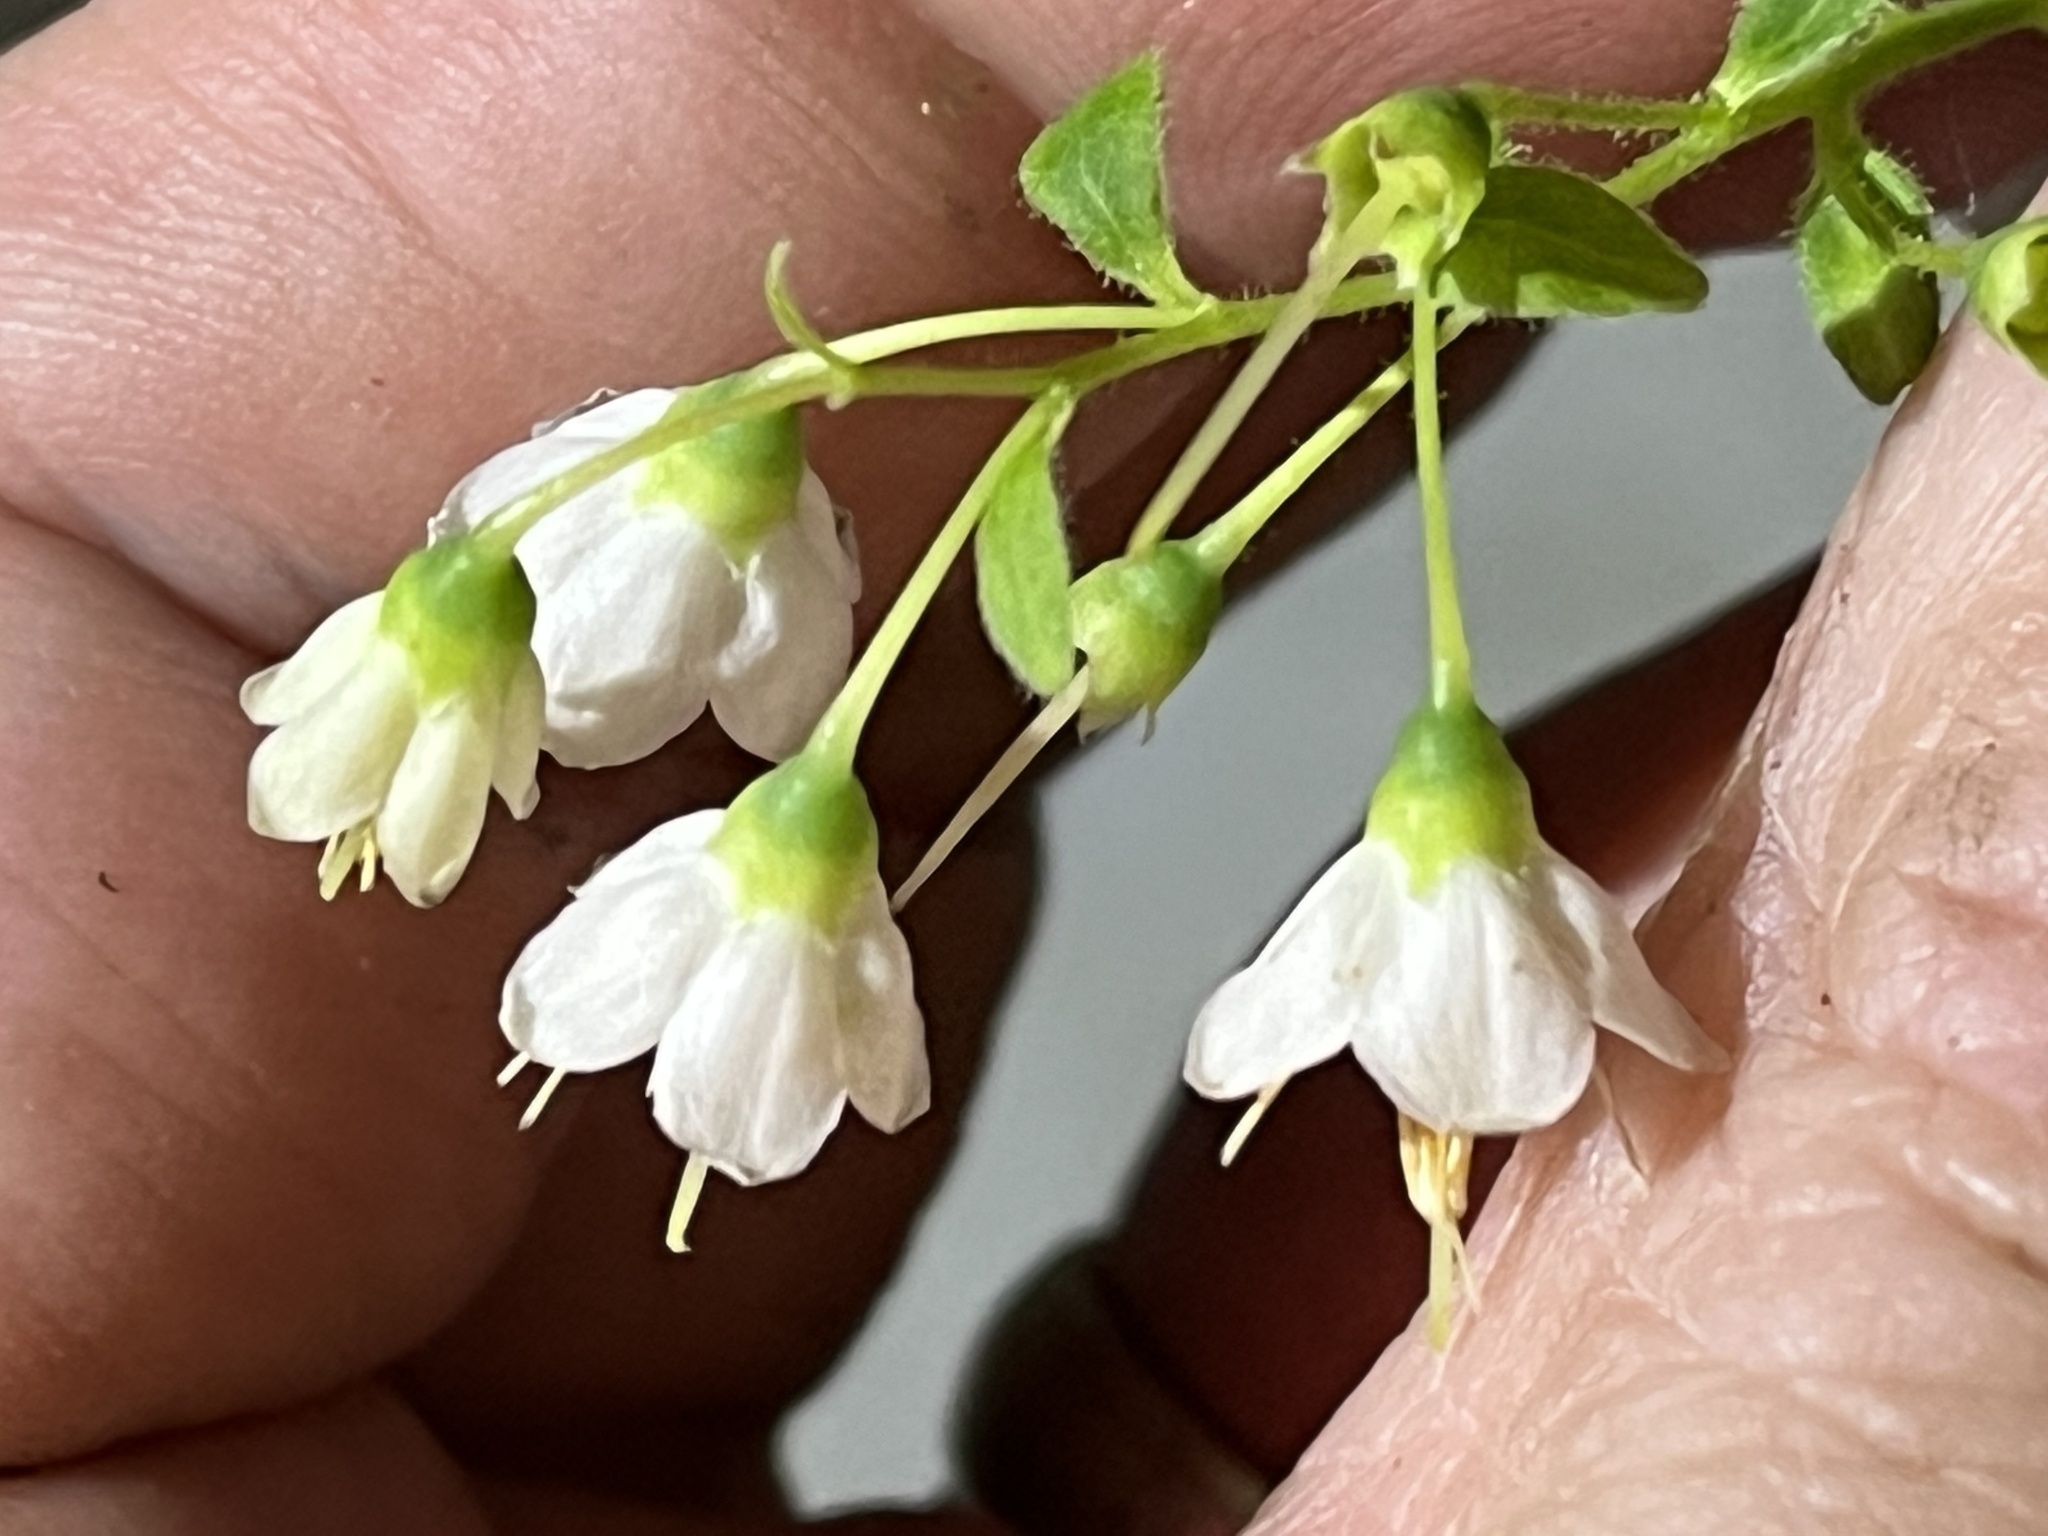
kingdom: Plantae
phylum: Tracheophyta
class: Magnoliopsida
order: Ericales
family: Ericaceae
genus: Vaccinium
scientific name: Vaccinium stamineum
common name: Deerberry
